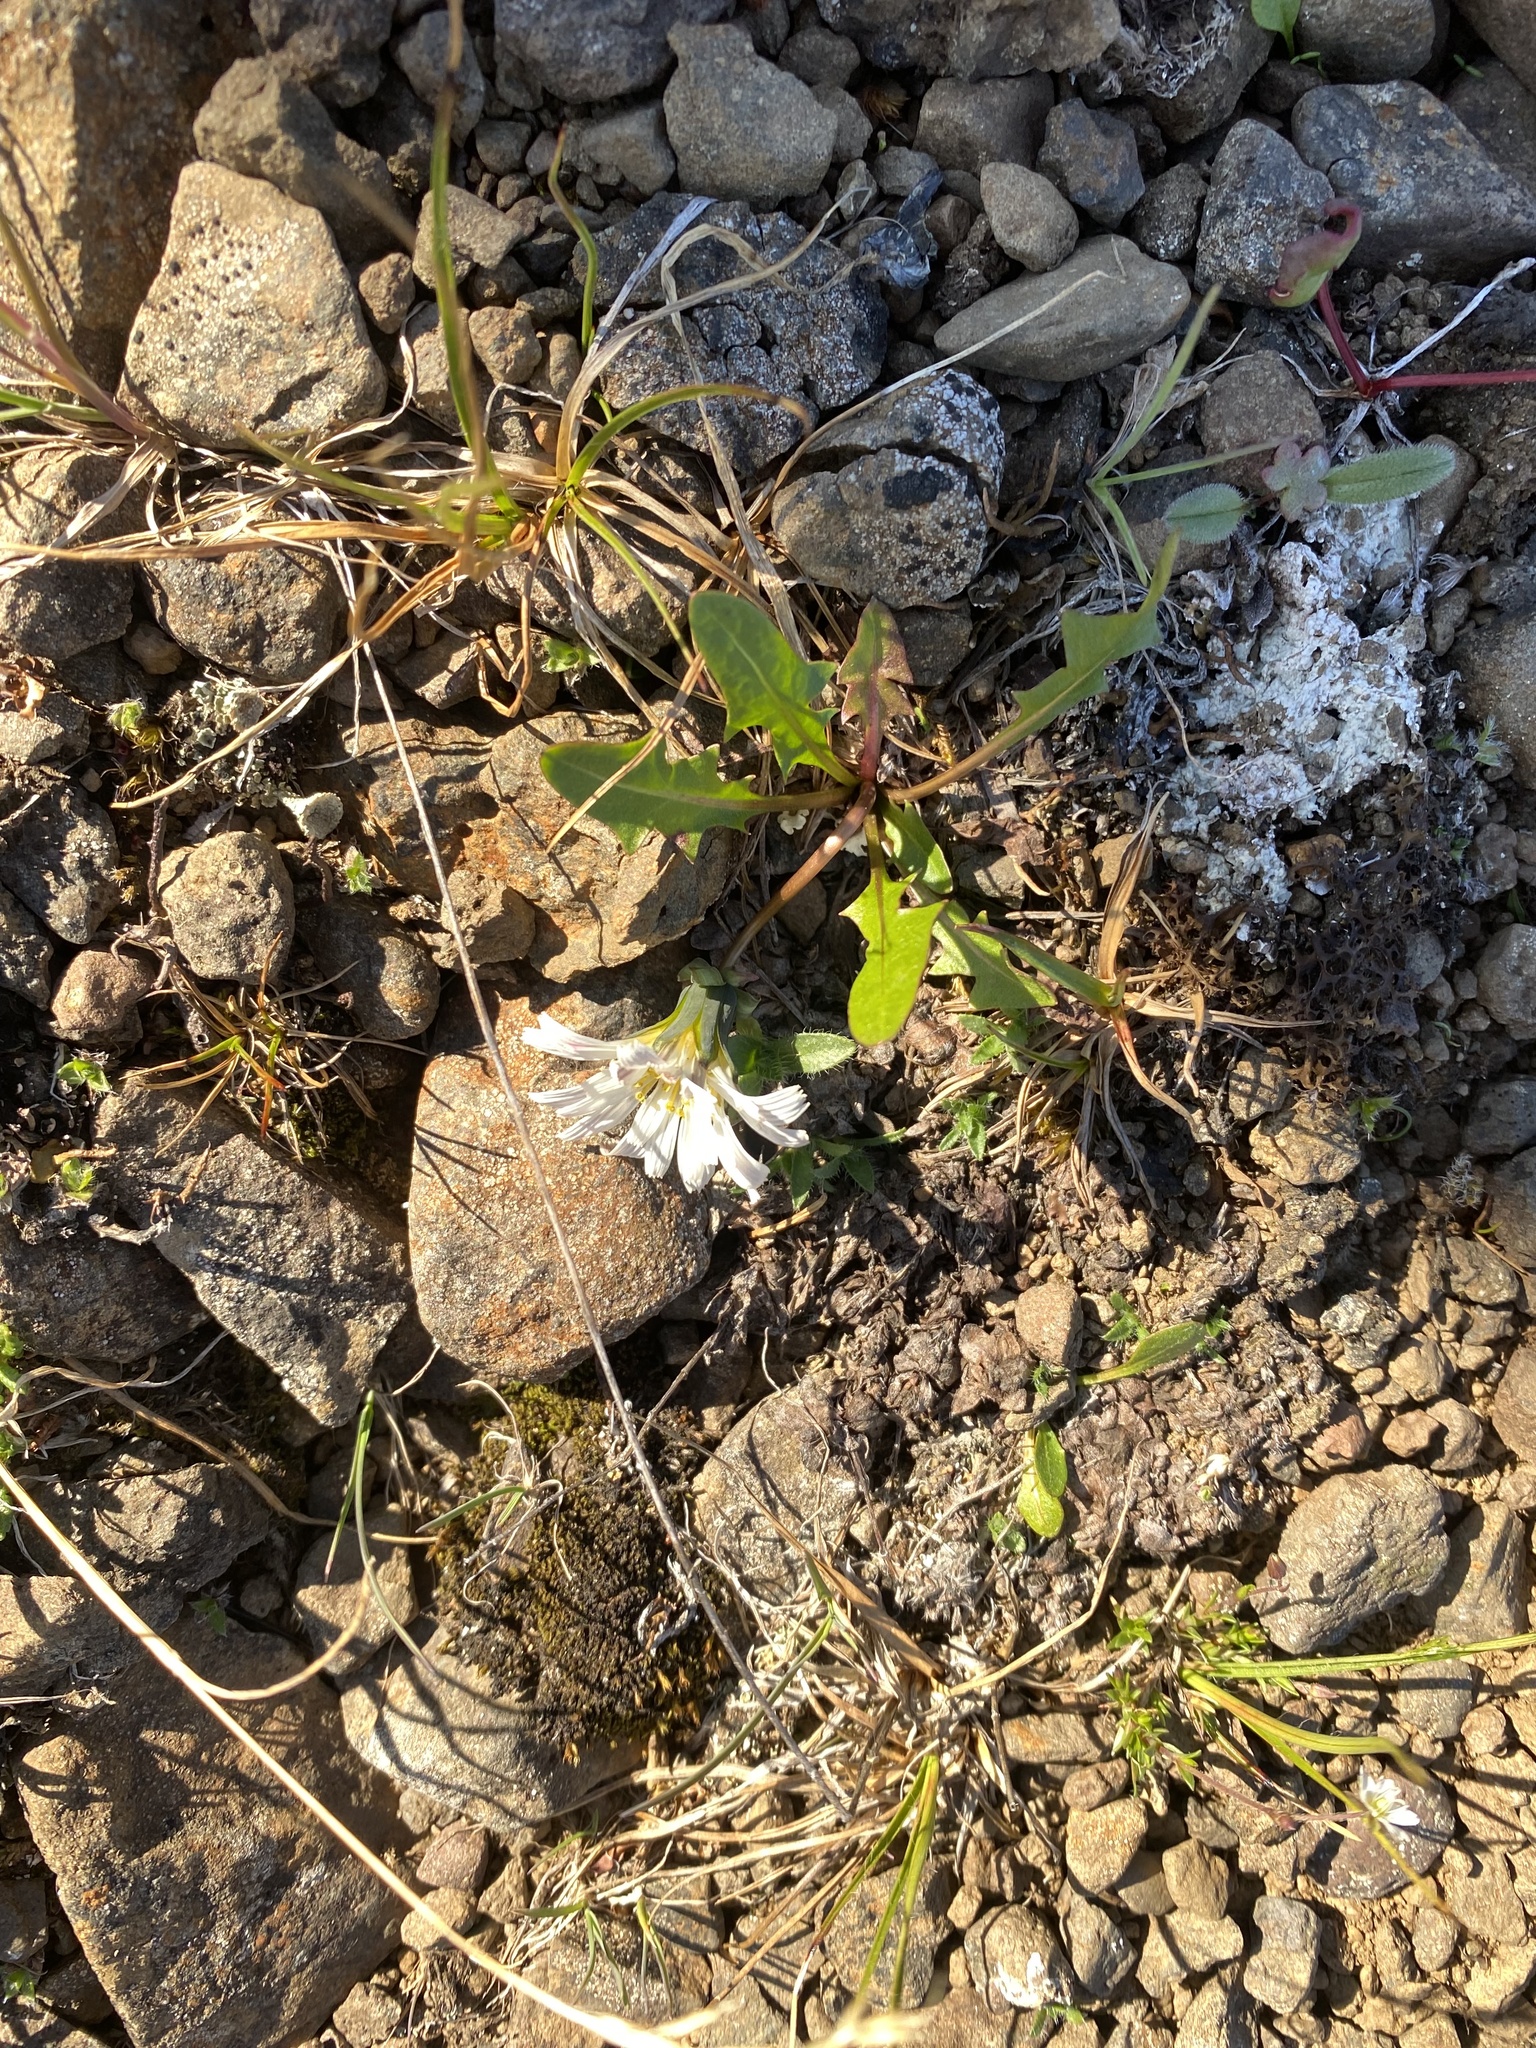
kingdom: Plantae
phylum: Tracheophyta
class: Magnoliopsida
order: Asterales
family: Asteraceae
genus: Taraxacum
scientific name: Taraxacum arcticum
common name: Arctic dandelion
